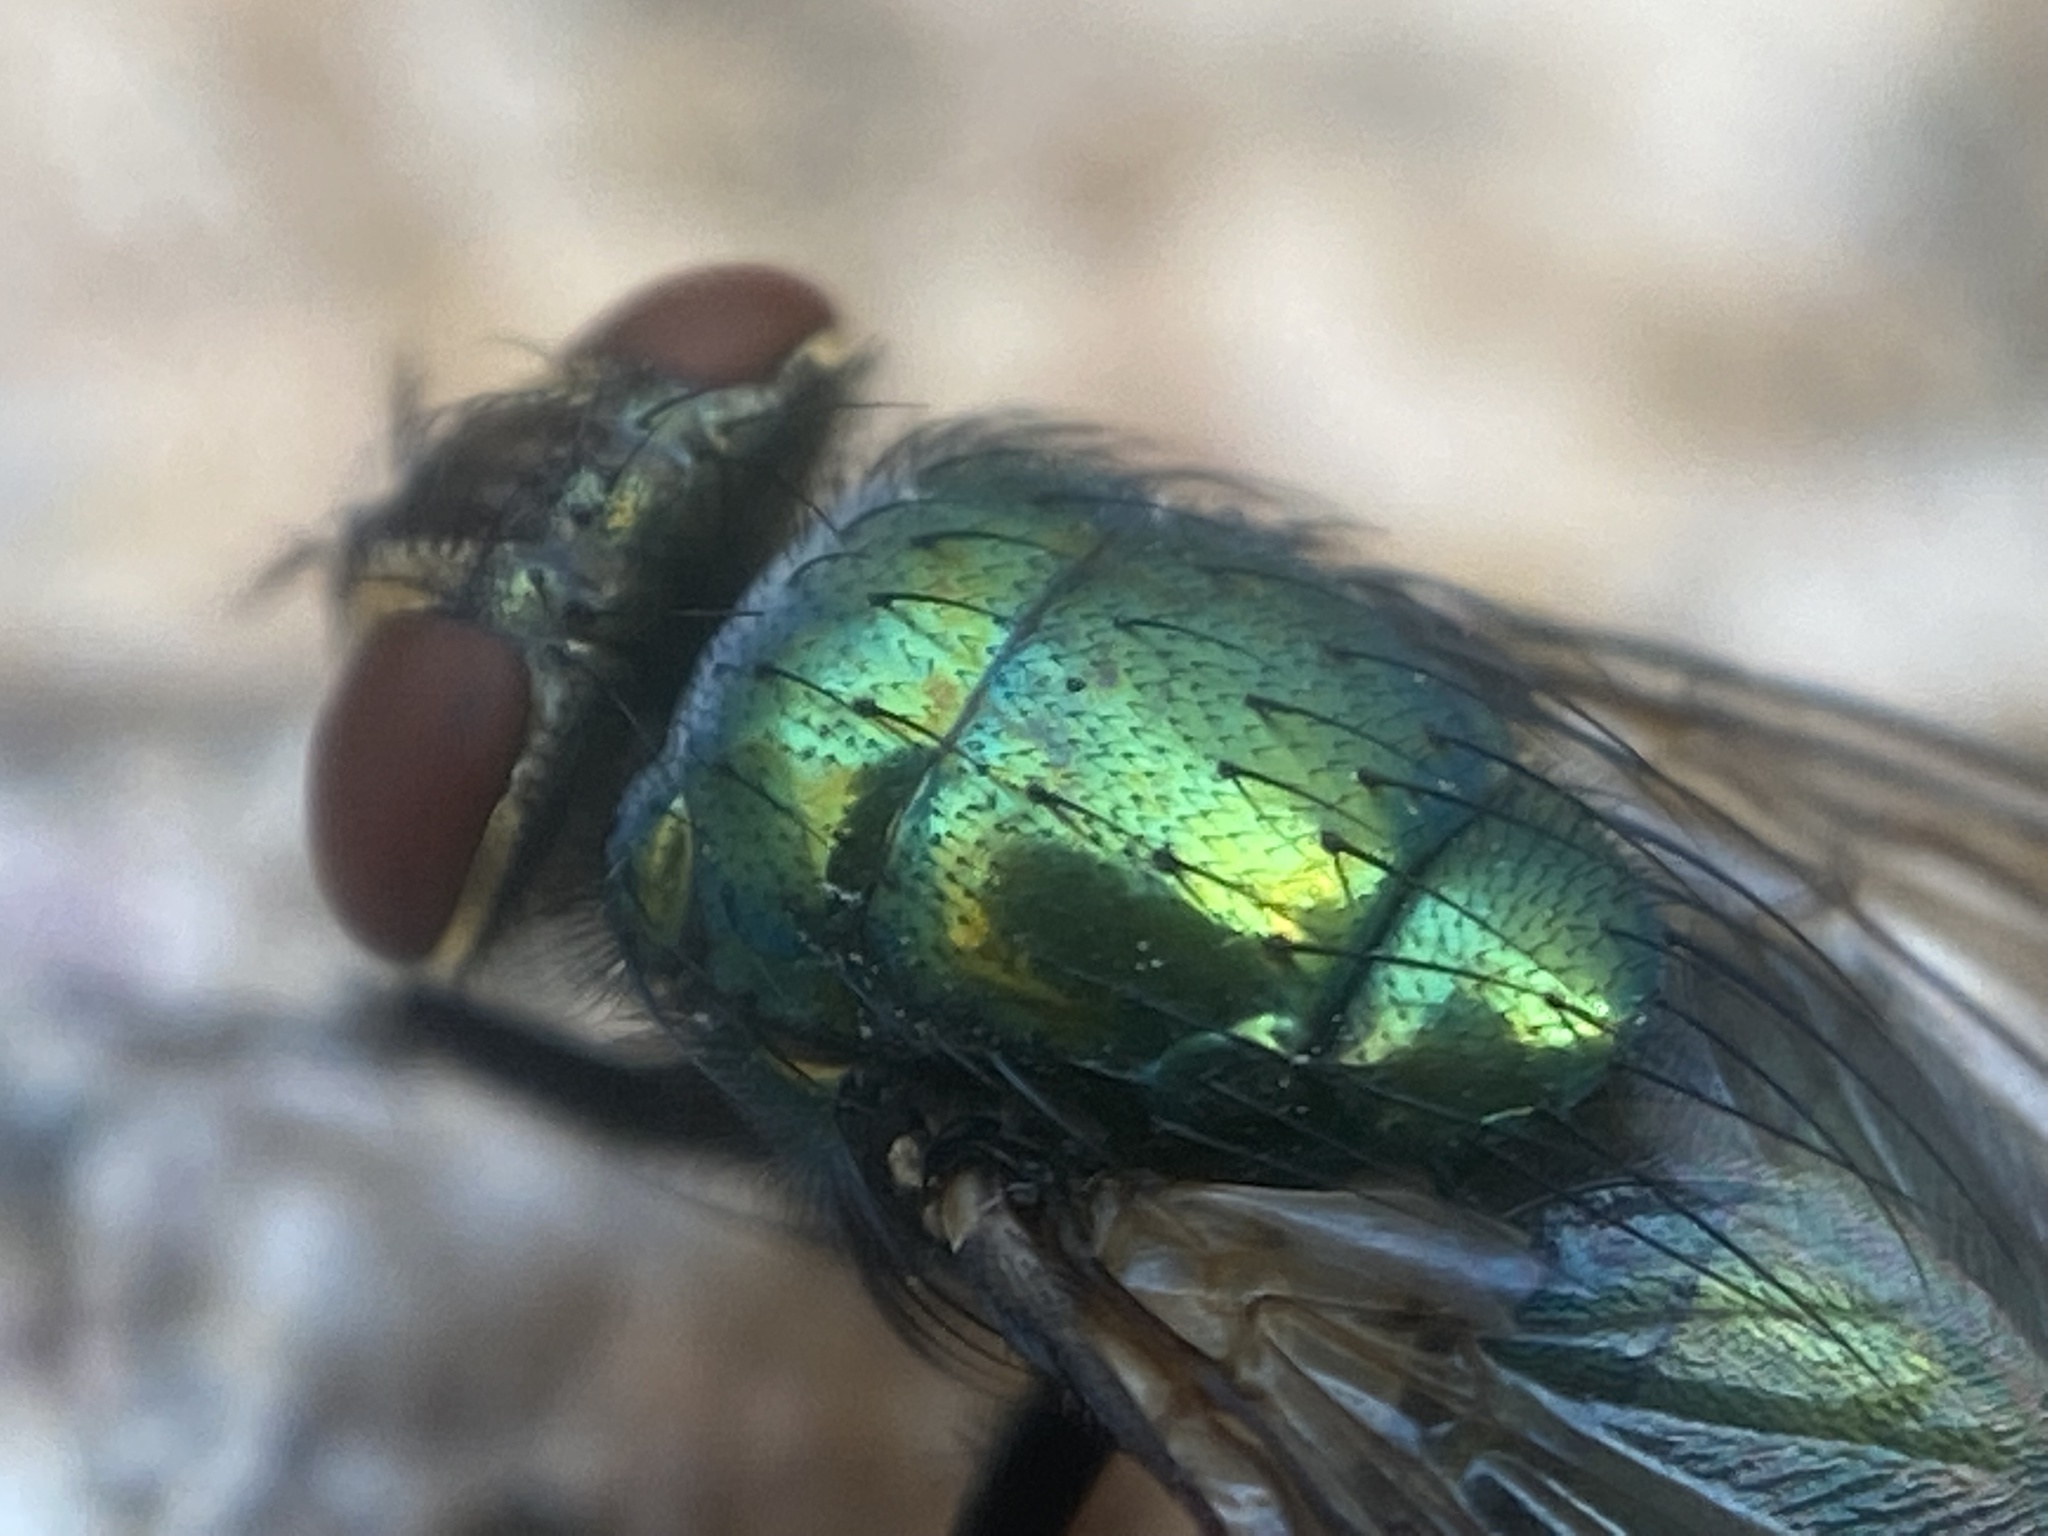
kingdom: Animalia
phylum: Arthropoda
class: Insecta
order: Diptera
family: Calliphoridae
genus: Lucilia
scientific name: Lucilia sericata
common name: Blow fly
